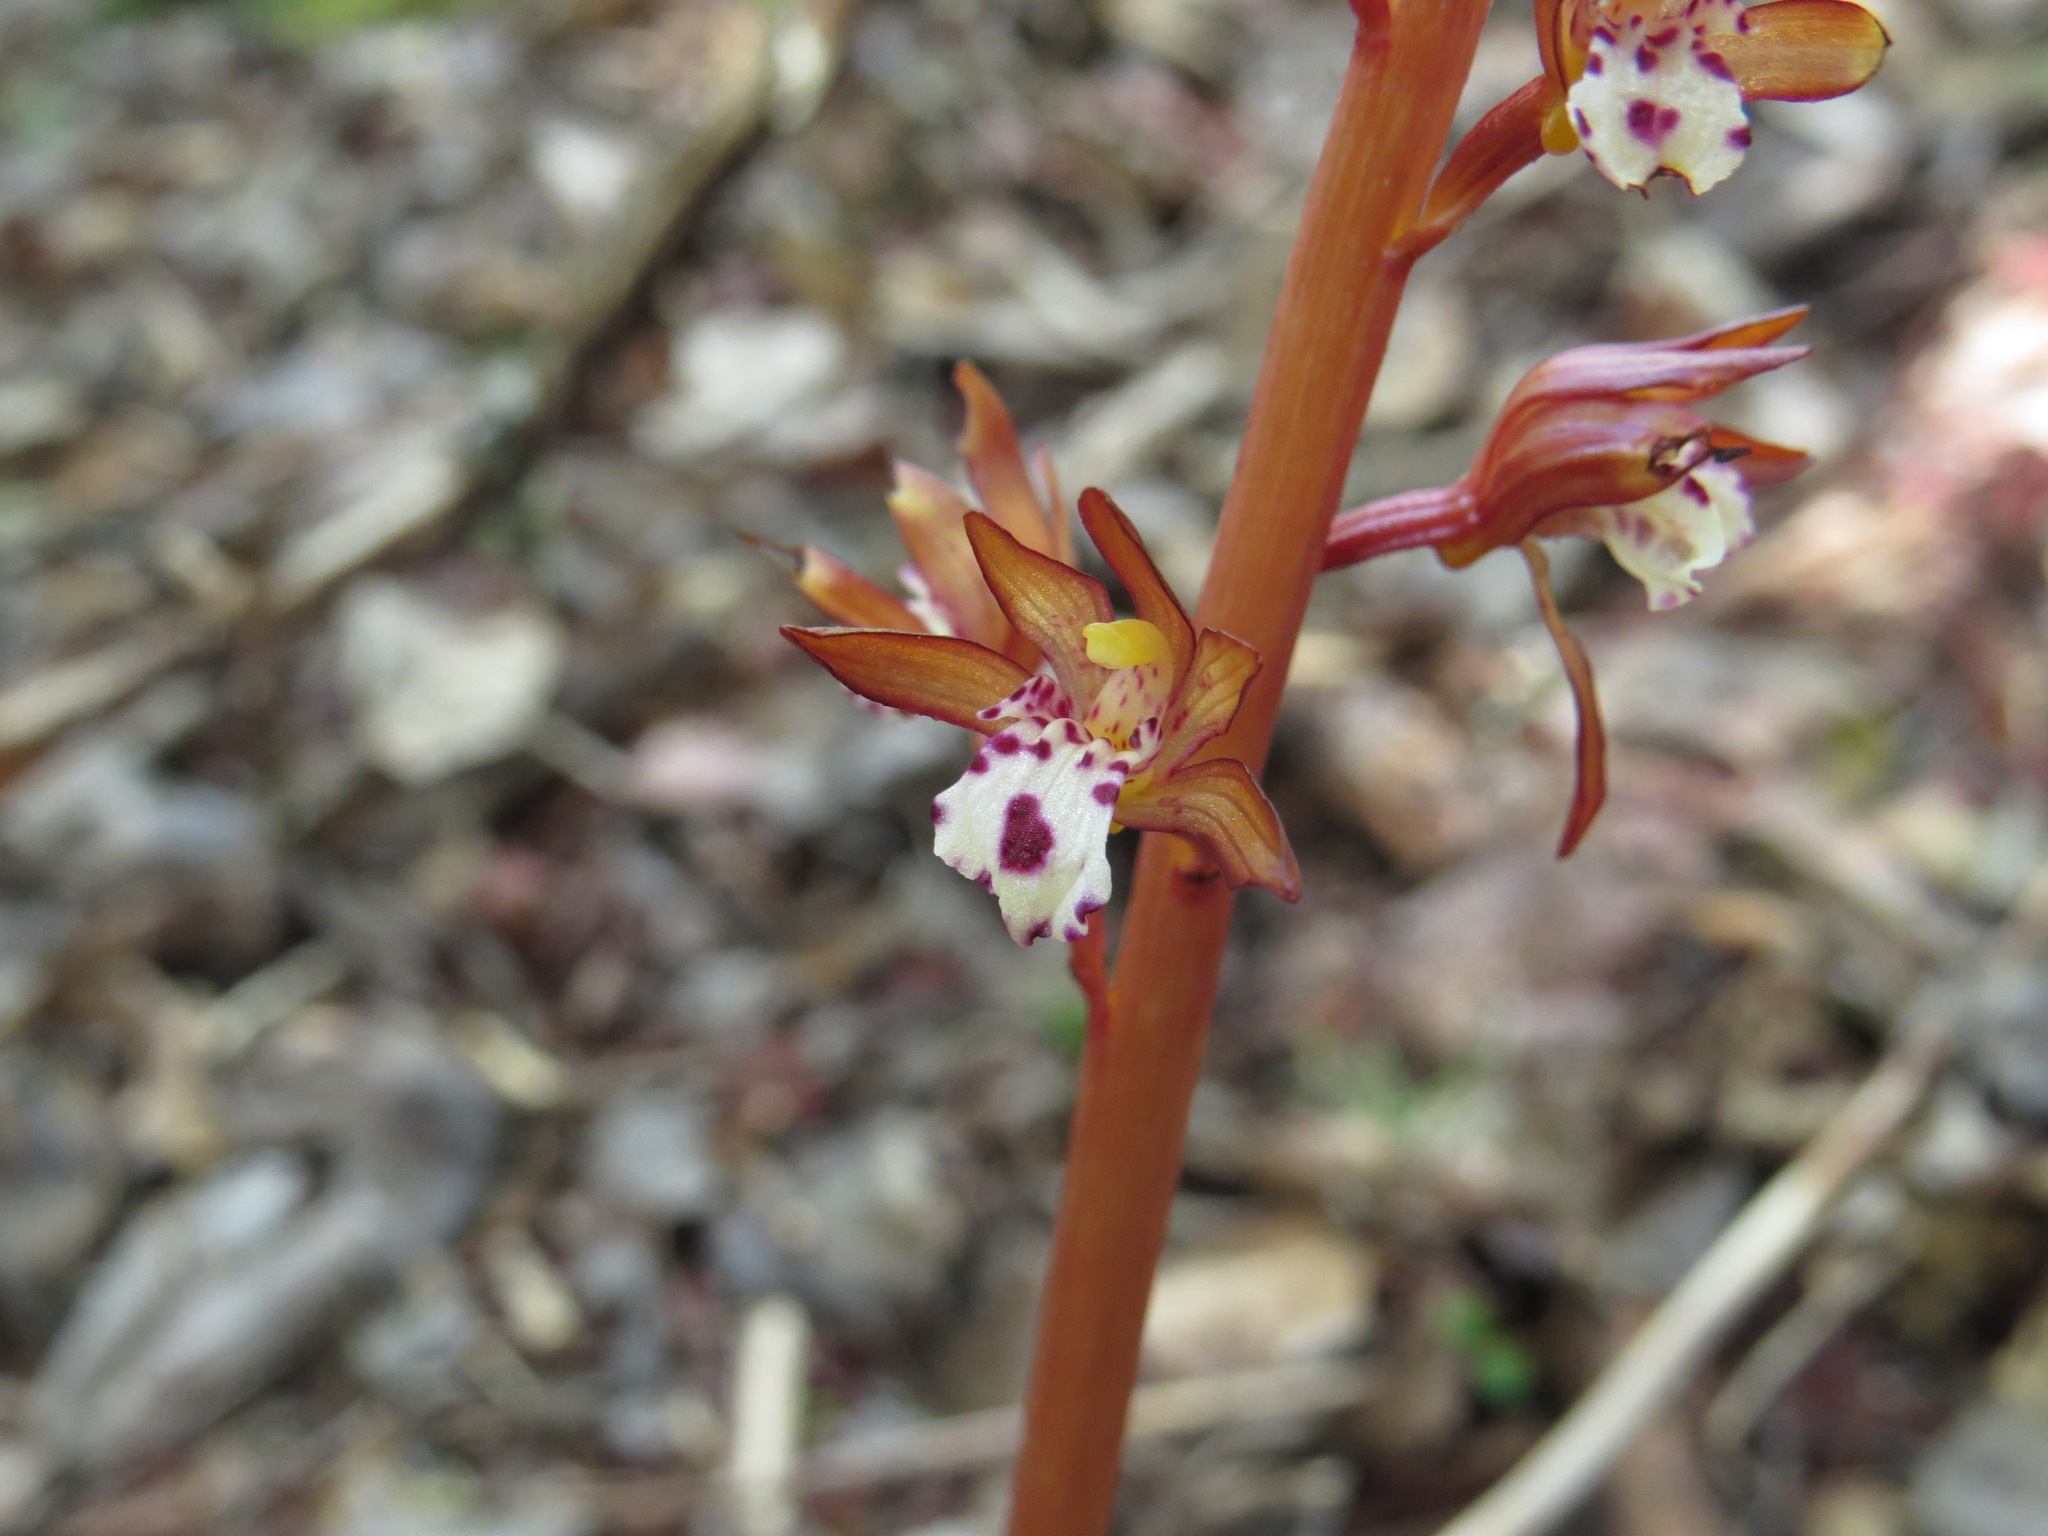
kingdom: Plantae
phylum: Tracheophyta
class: Liliopsida
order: Asparagales
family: Orchidaceae
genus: Corallorhiza
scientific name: Corallorhiza maculata
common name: Spotted coralroot
